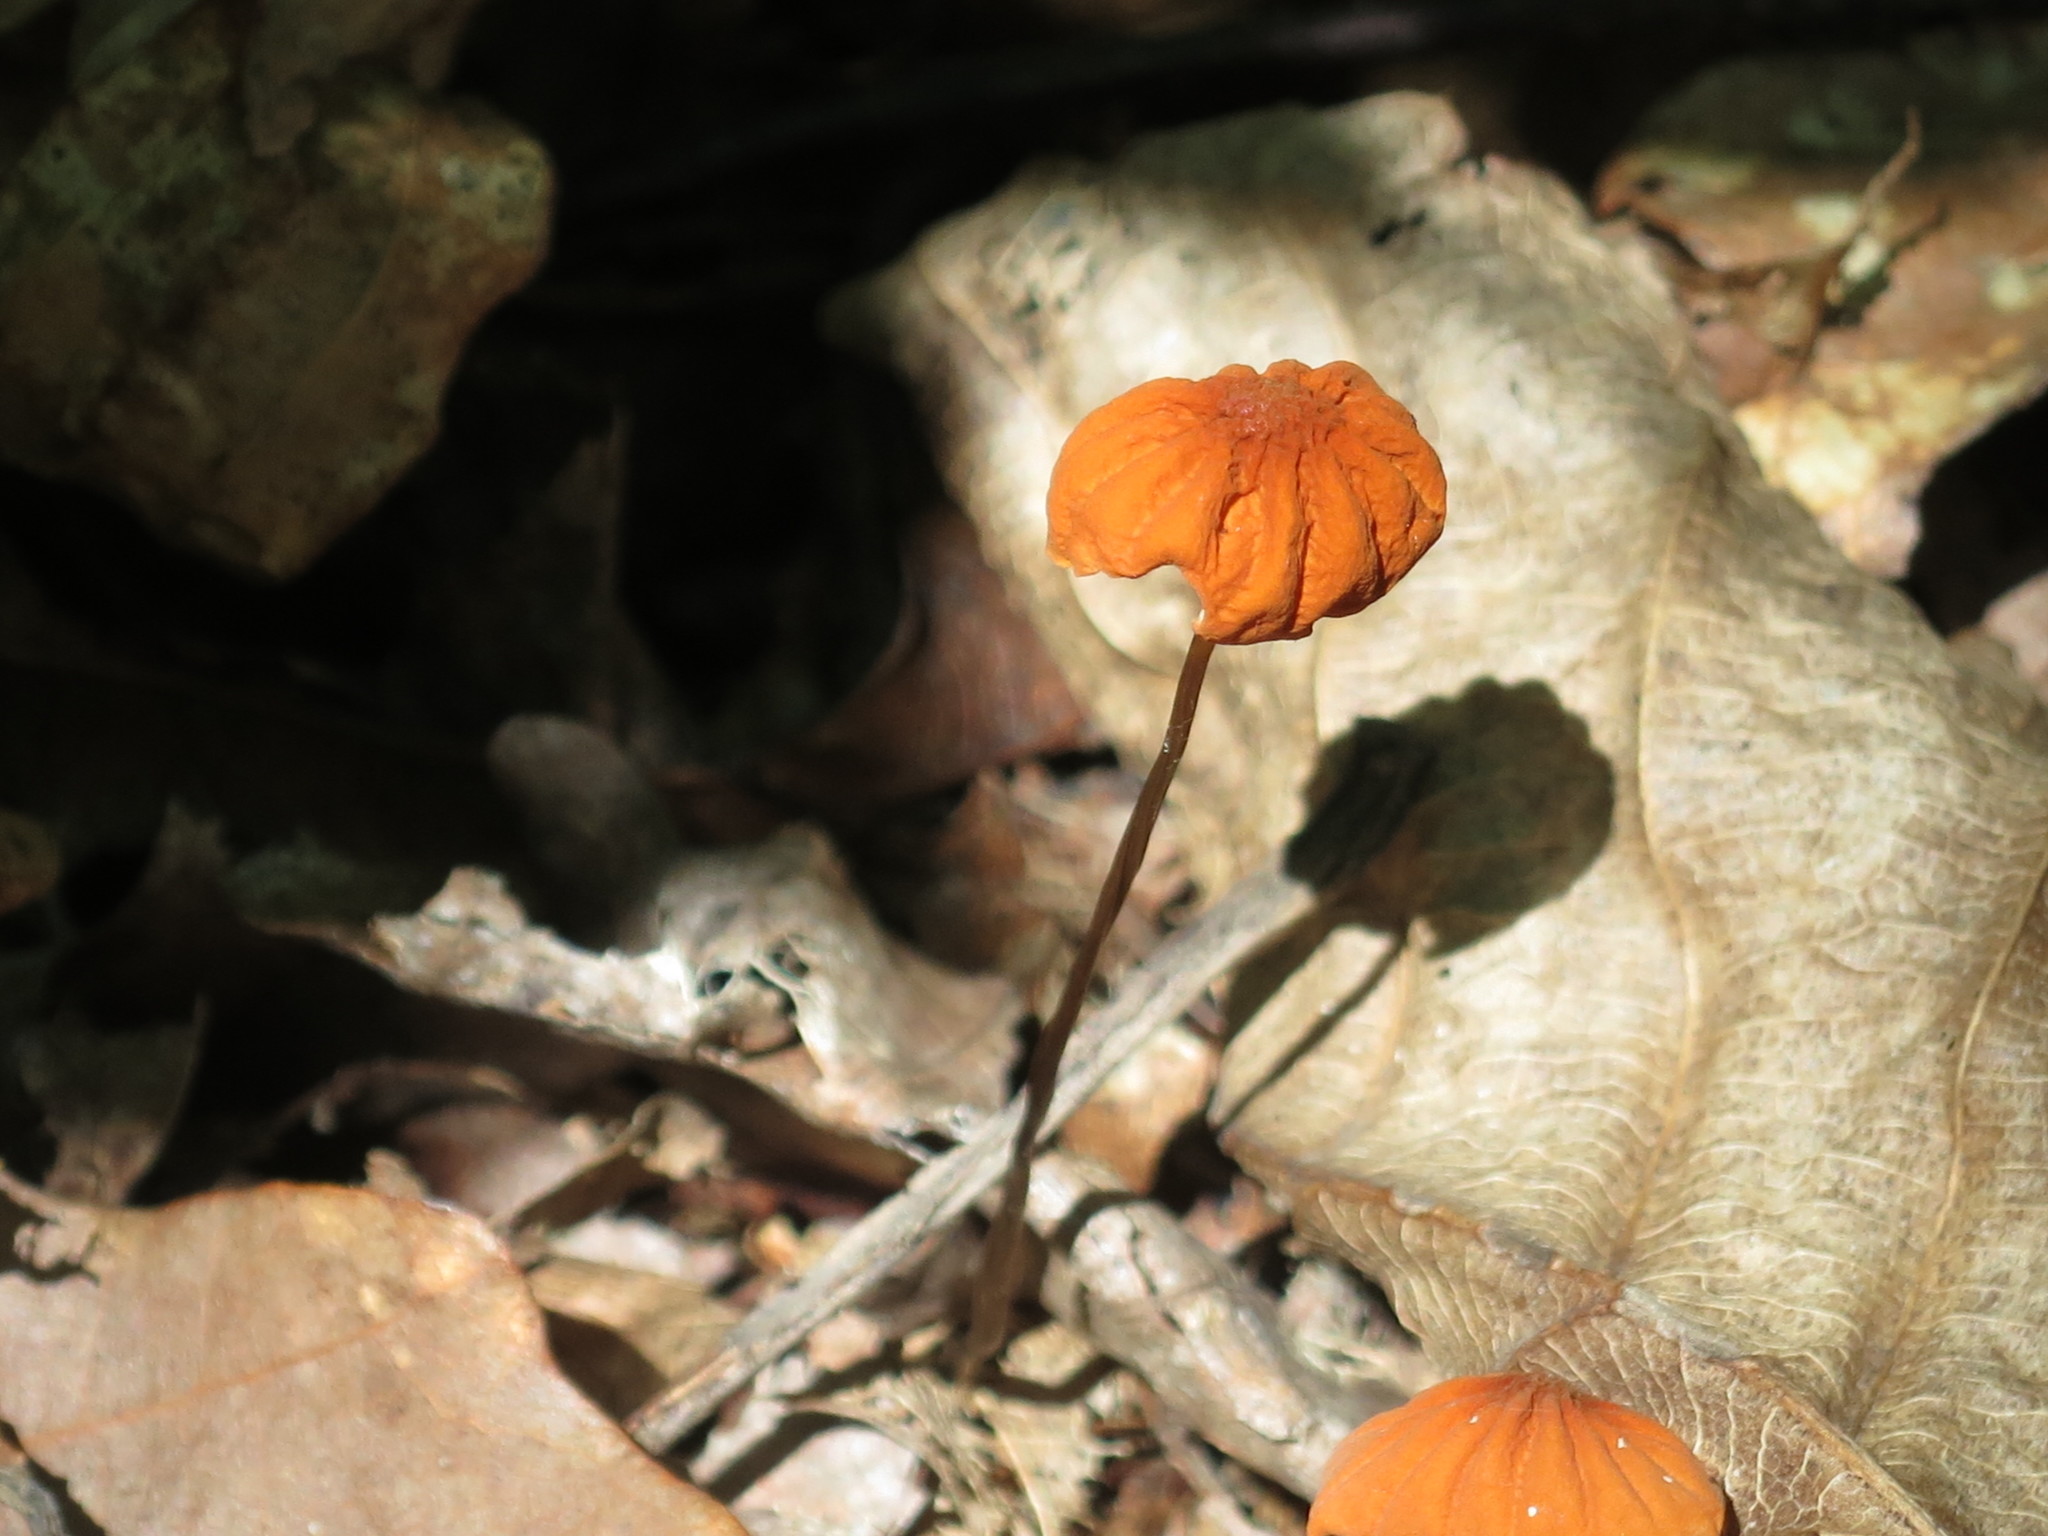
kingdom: Fungi
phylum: Basidiomycota
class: Agaricomycetes
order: Agaricales
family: Marasmiaceae
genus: Marasmius
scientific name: Marasmius siccus
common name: Orange pinwheel
